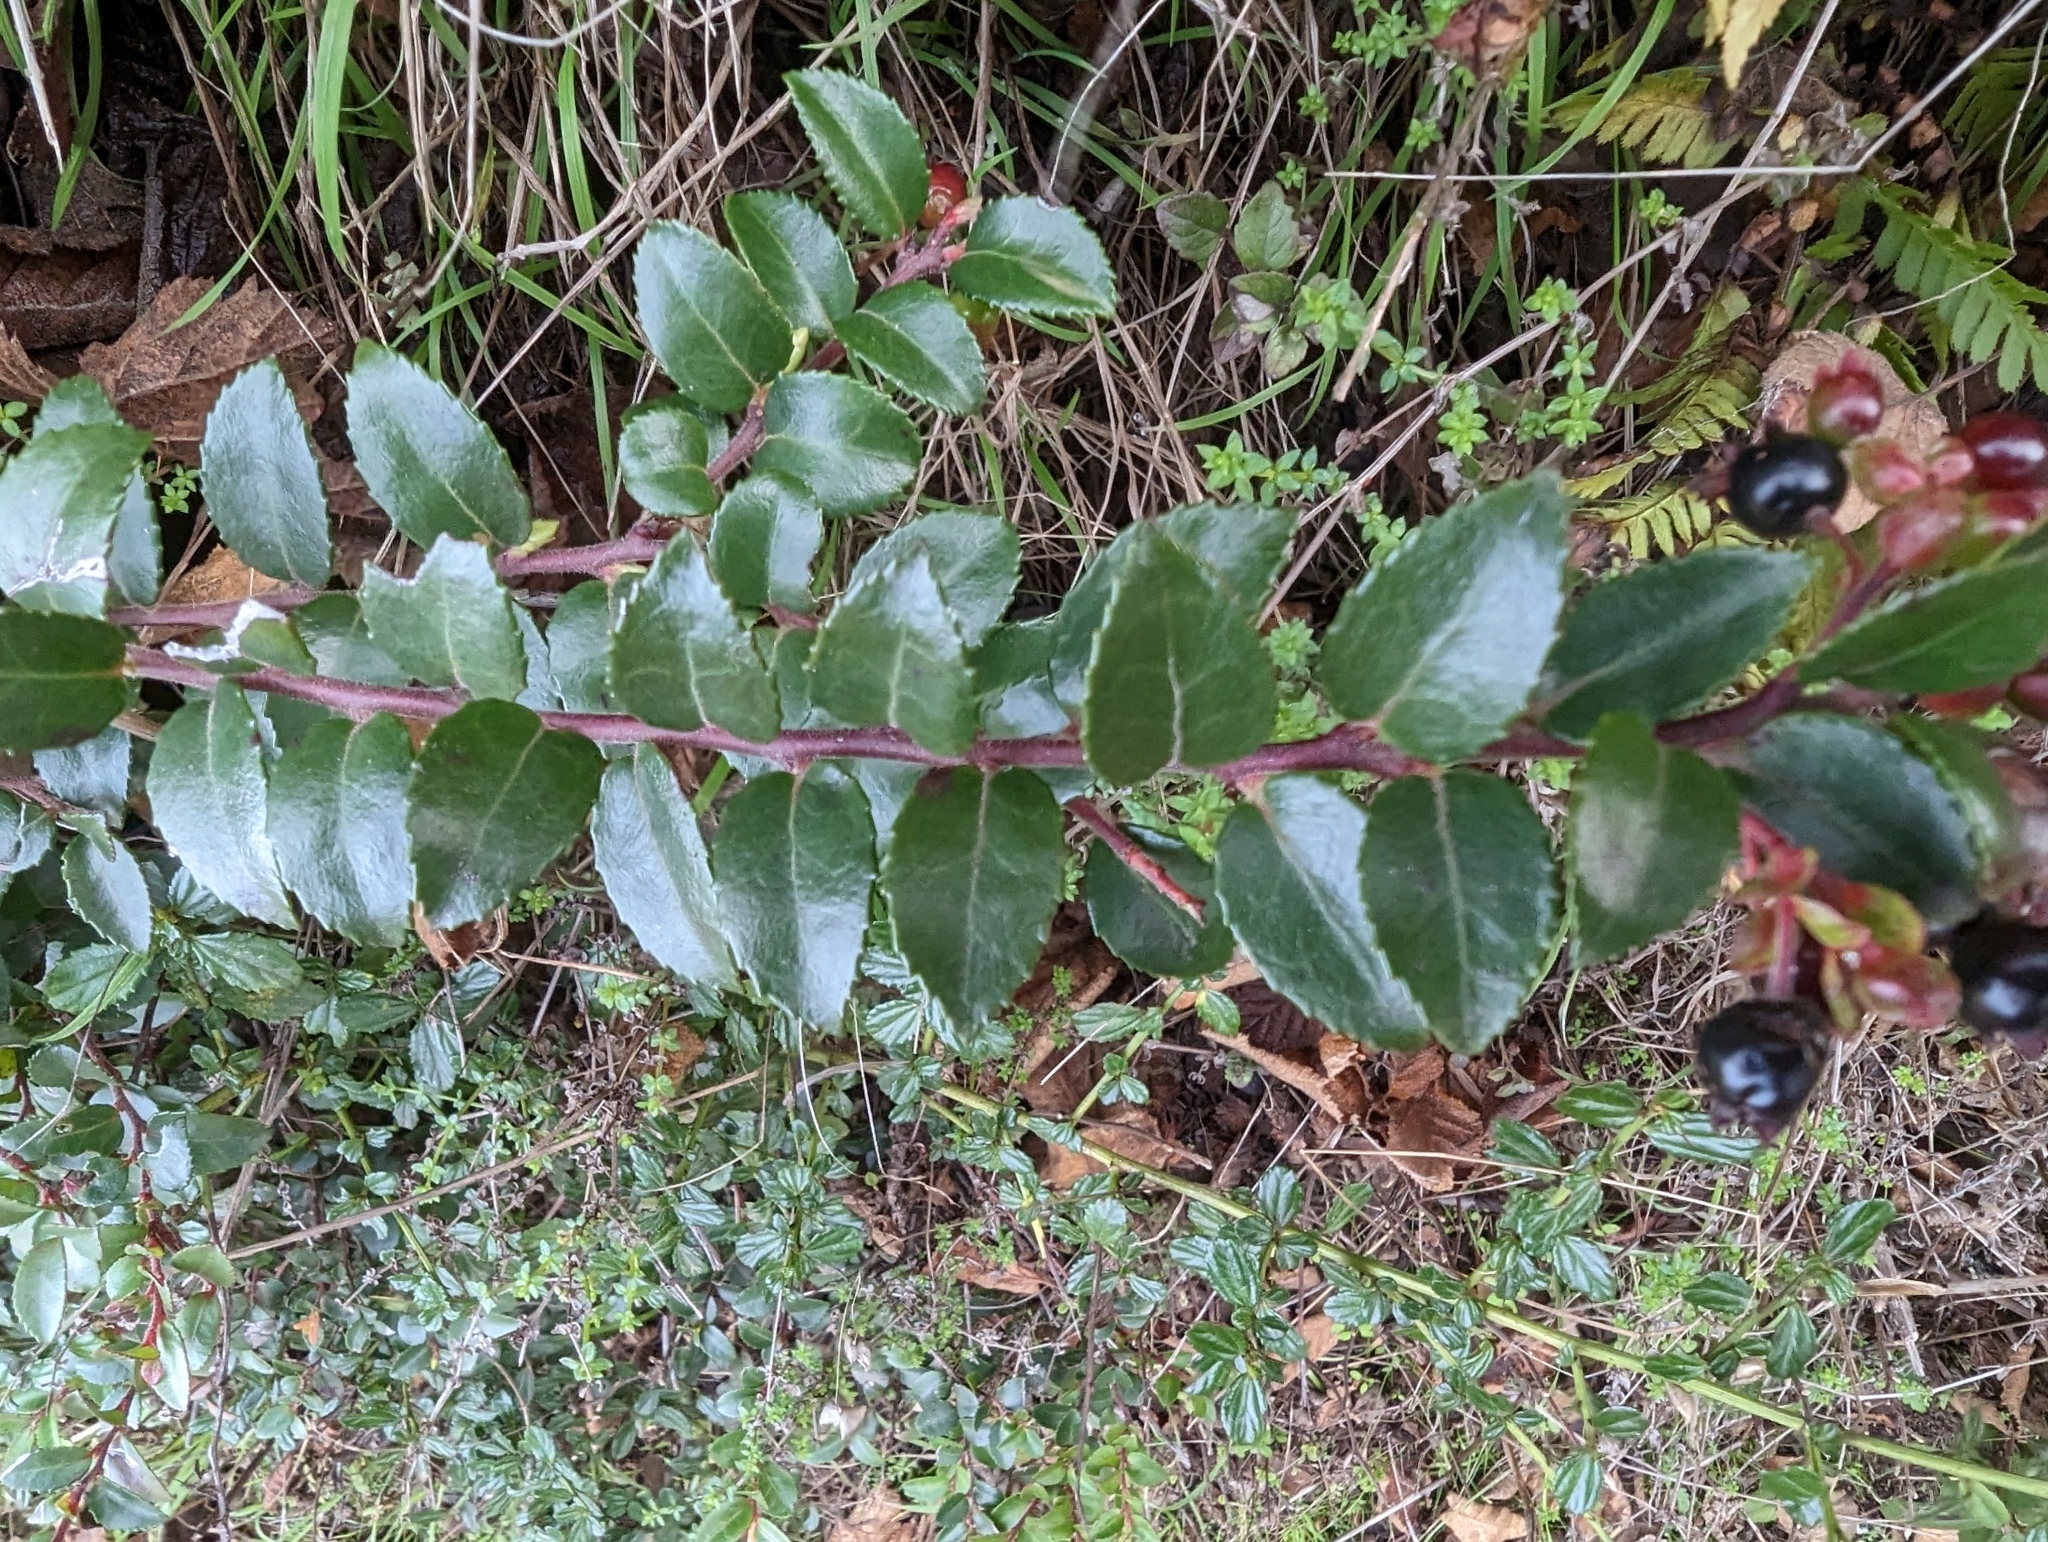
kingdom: Plantae
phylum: Tracheophyta
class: Magnoliopsida
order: Ericales
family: Ericaceae
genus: Vaccinium
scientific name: Vaccinium ovatum
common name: California-huckleberry
